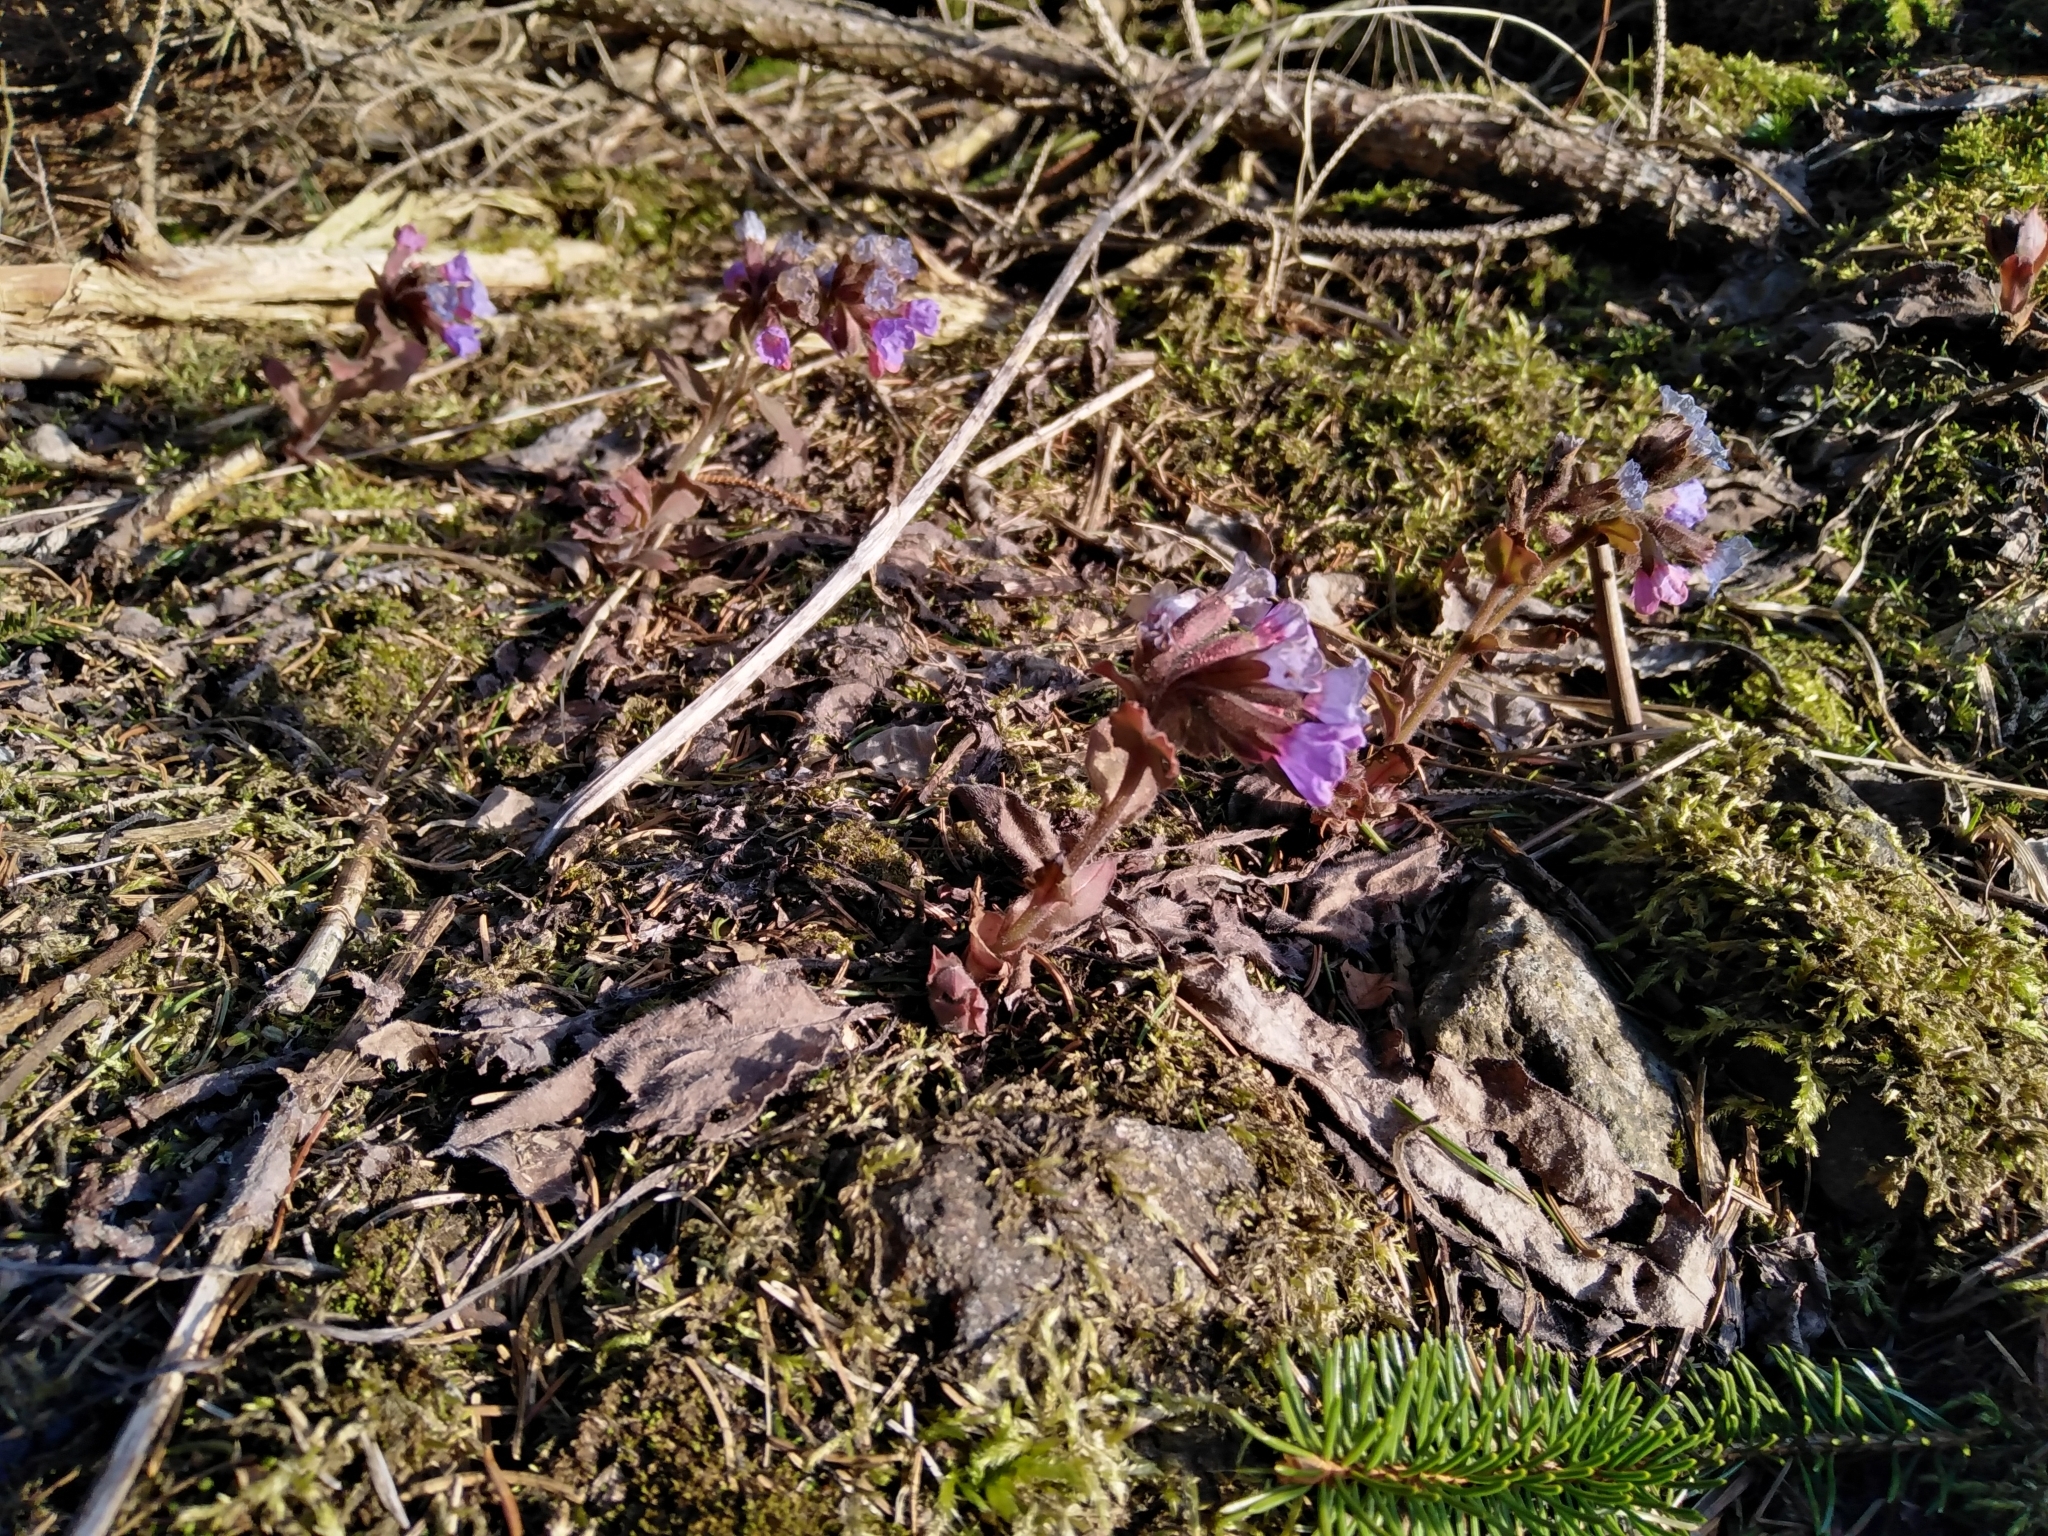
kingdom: Plantae
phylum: Tracheophyta
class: Magnoliopsida
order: Boraginales
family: Boraginaceae
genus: Pulmonaria
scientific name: Pulmonaria officinalis
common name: Lungwort
